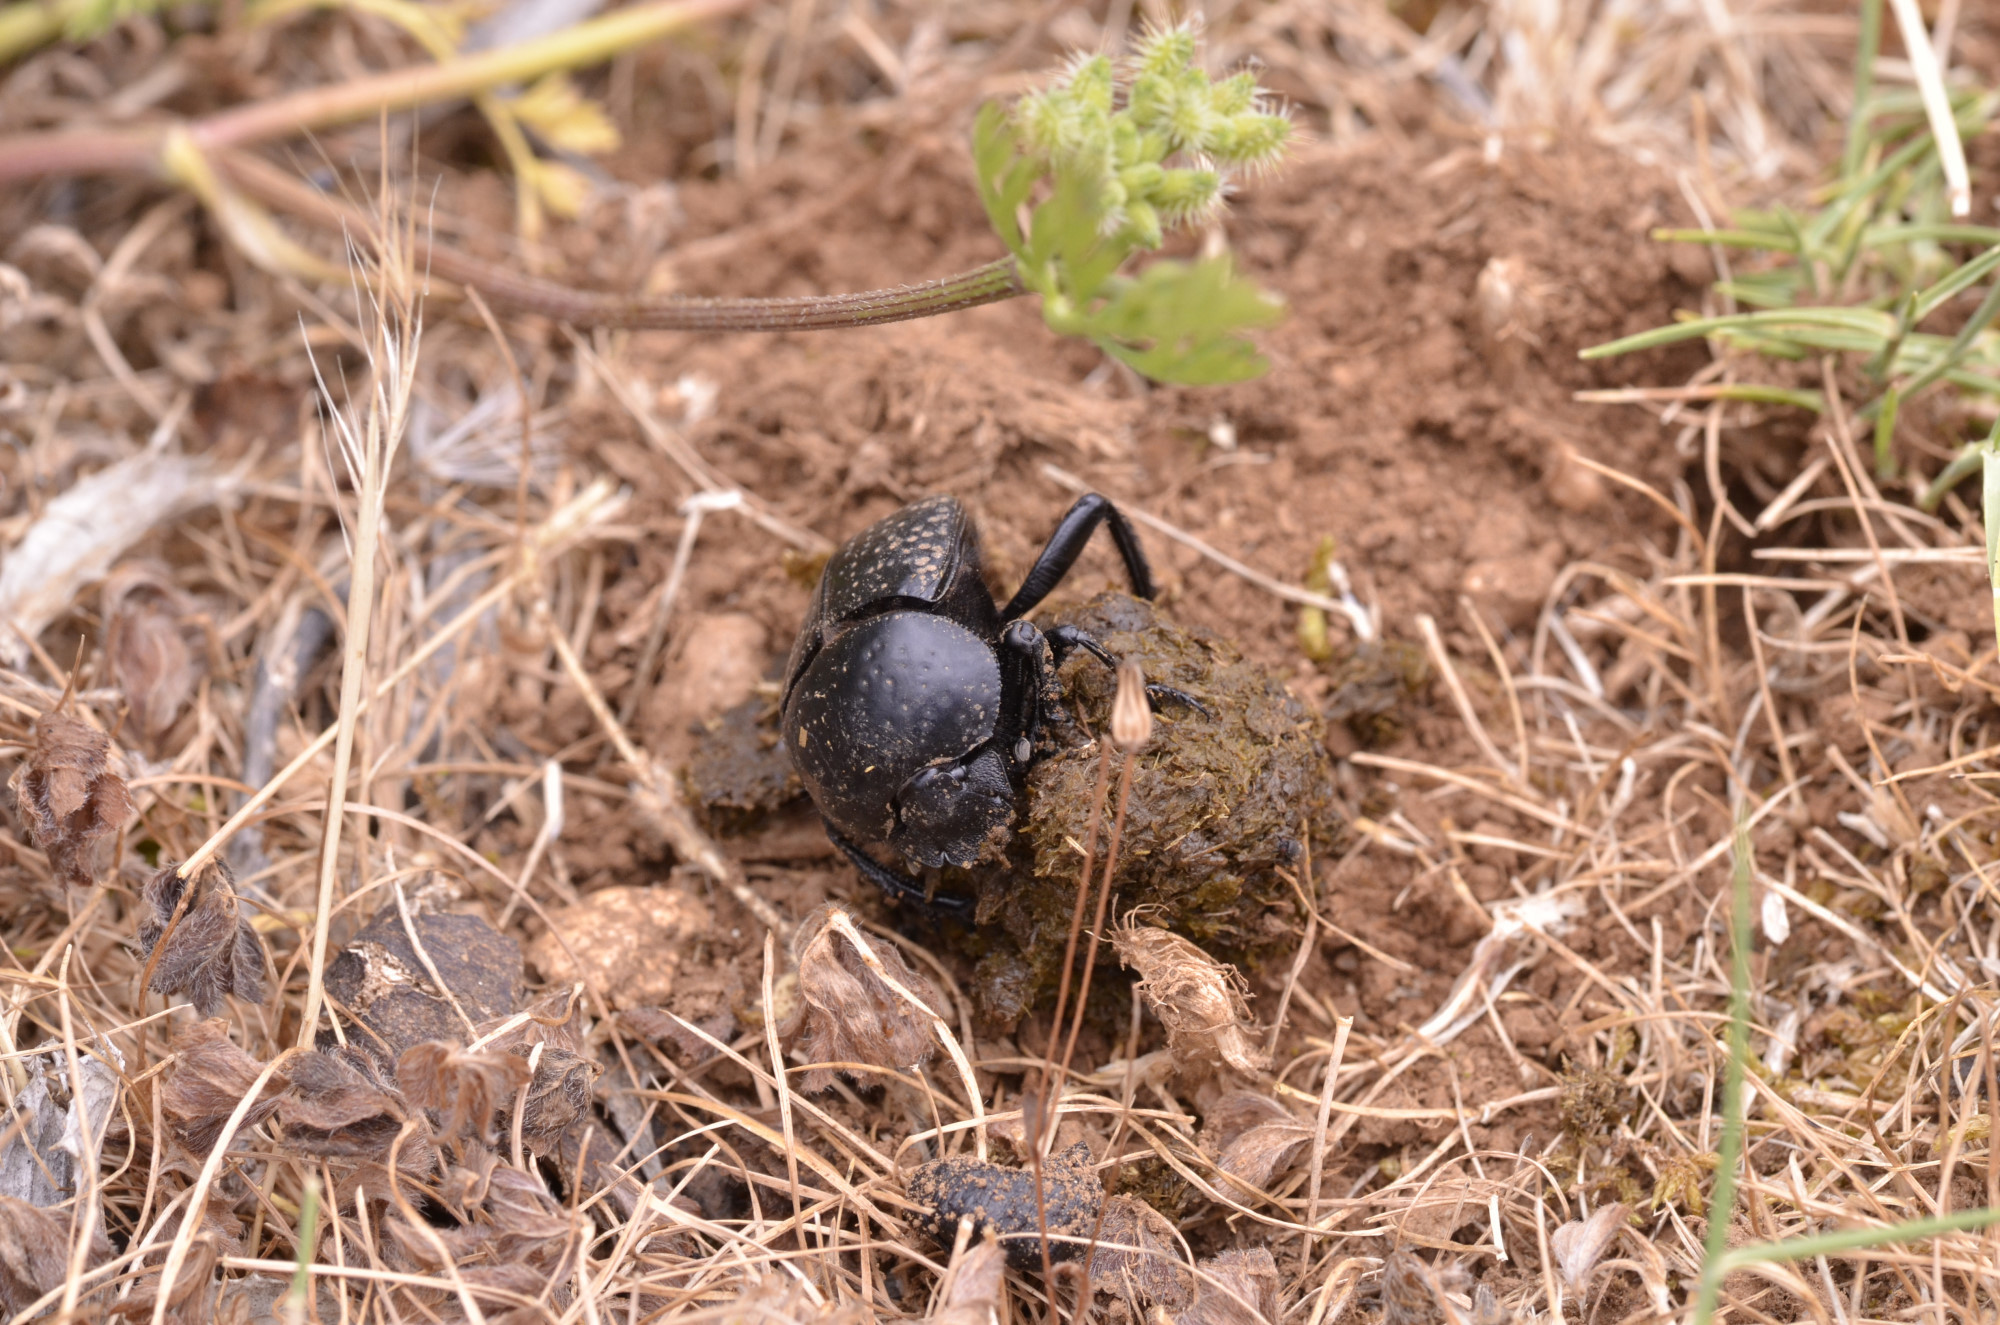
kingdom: Animalia
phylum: Arthropoda
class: Insecta
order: Coleoptera
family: Scarabaeidae
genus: Ateuchetus
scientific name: Ateuchetus
